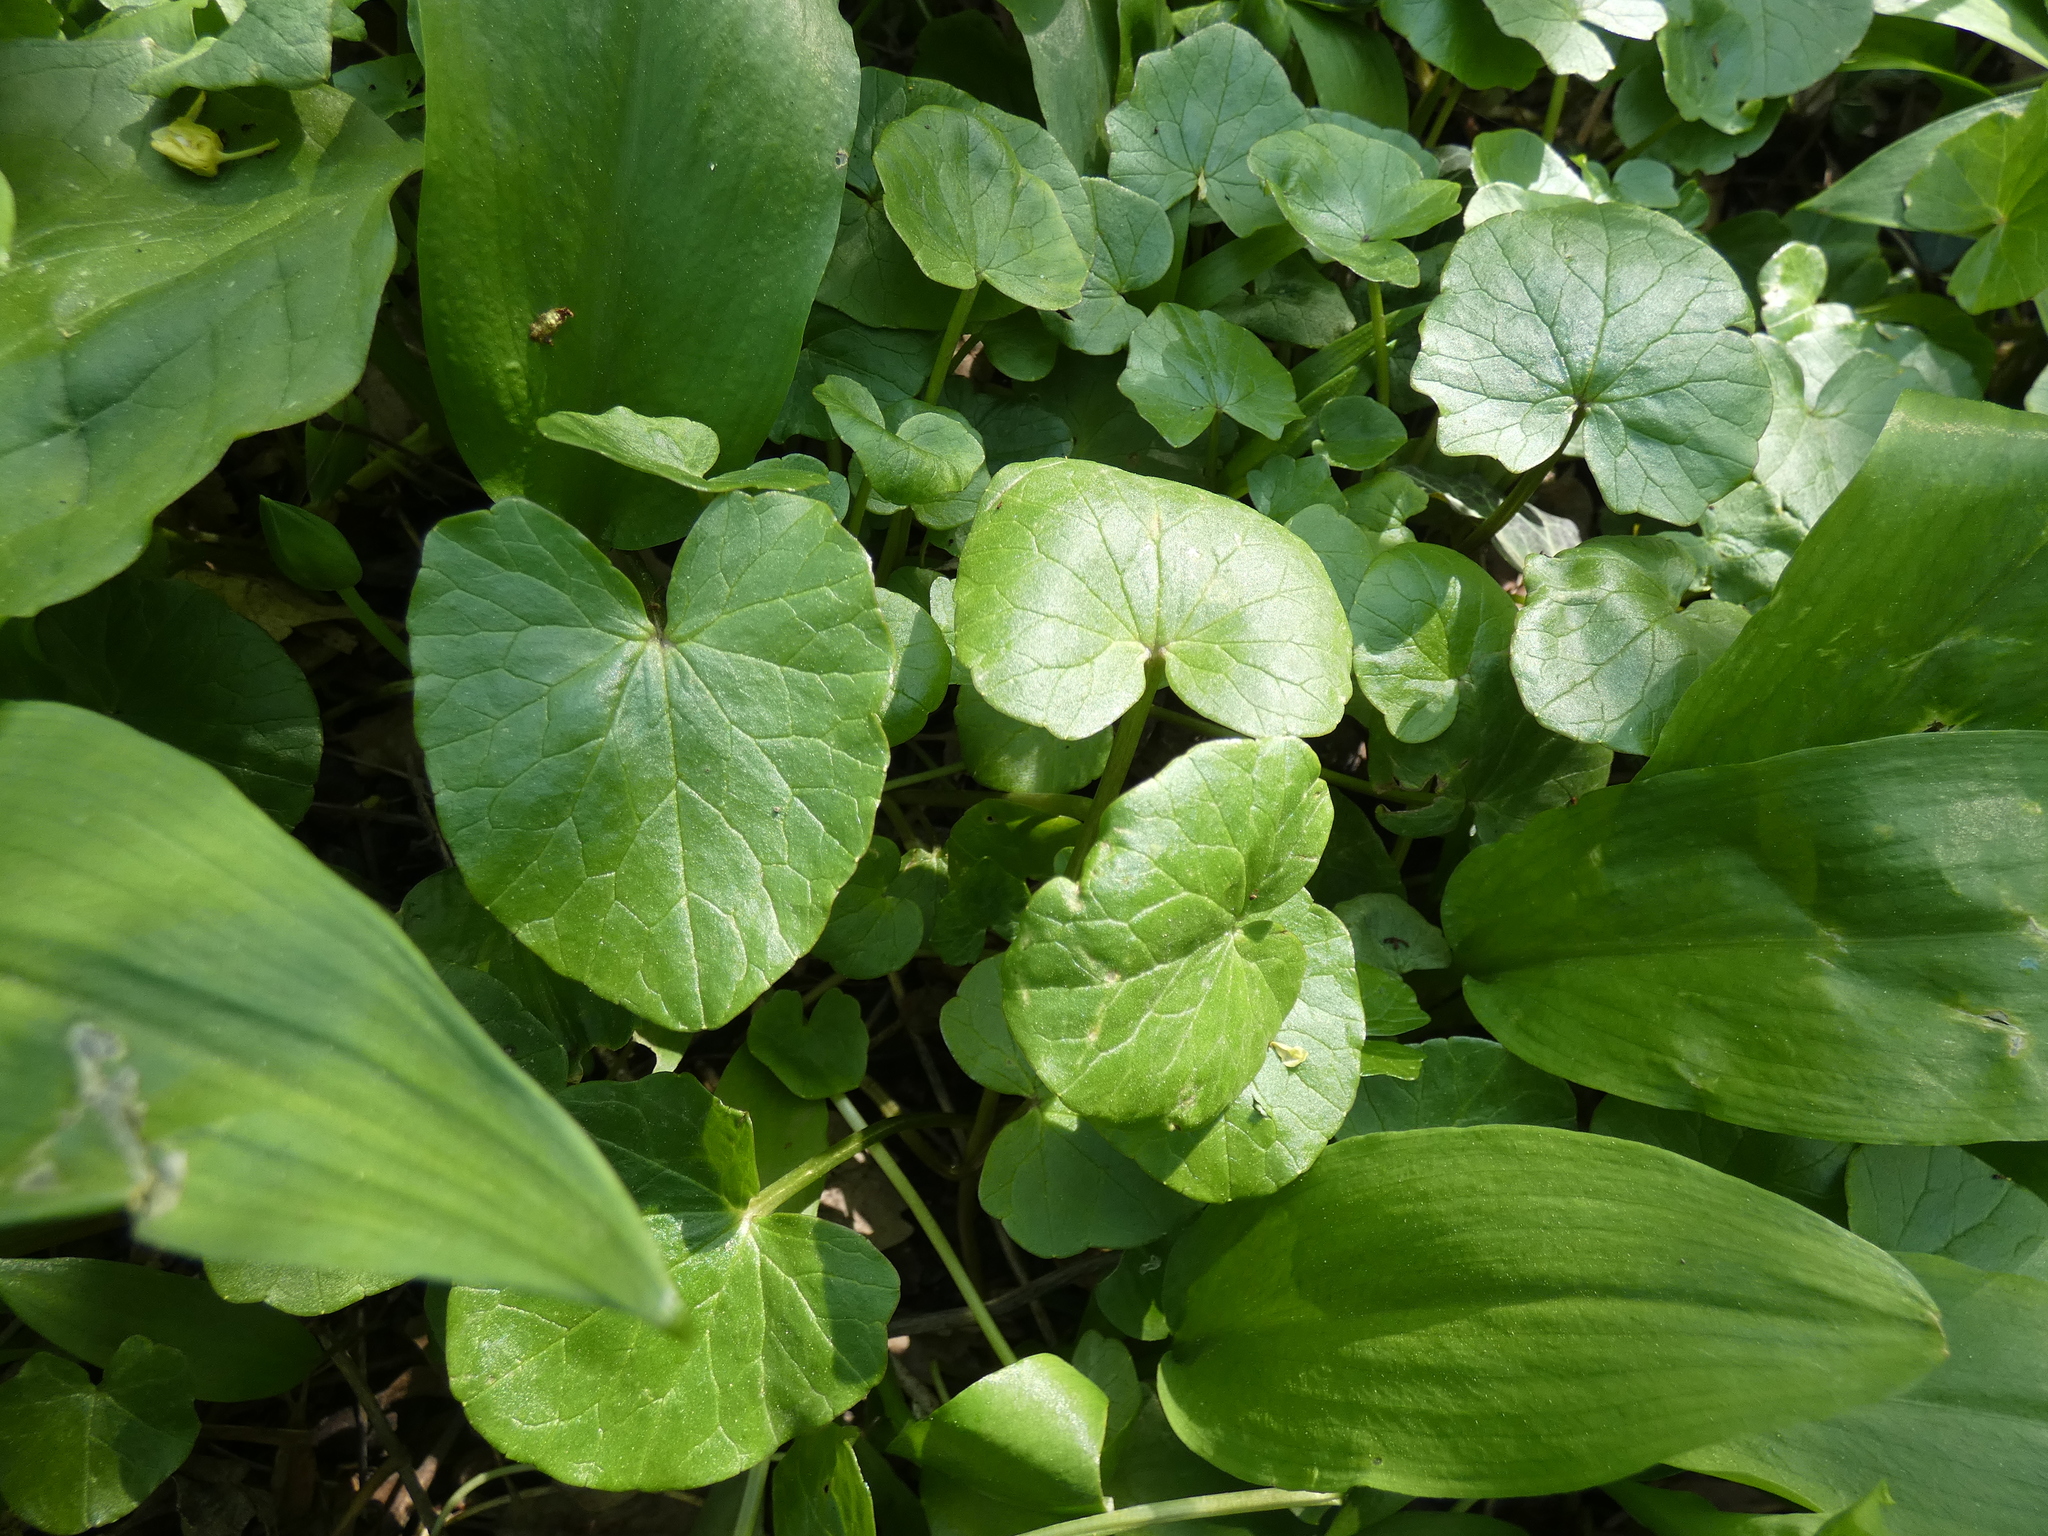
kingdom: Plantae
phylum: Tracheophyta
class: Magnoliopsida
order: Ranunculales
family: Ranunculaceae
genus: Ficaria
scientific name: Ficaria verna
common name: Lesser celandine
